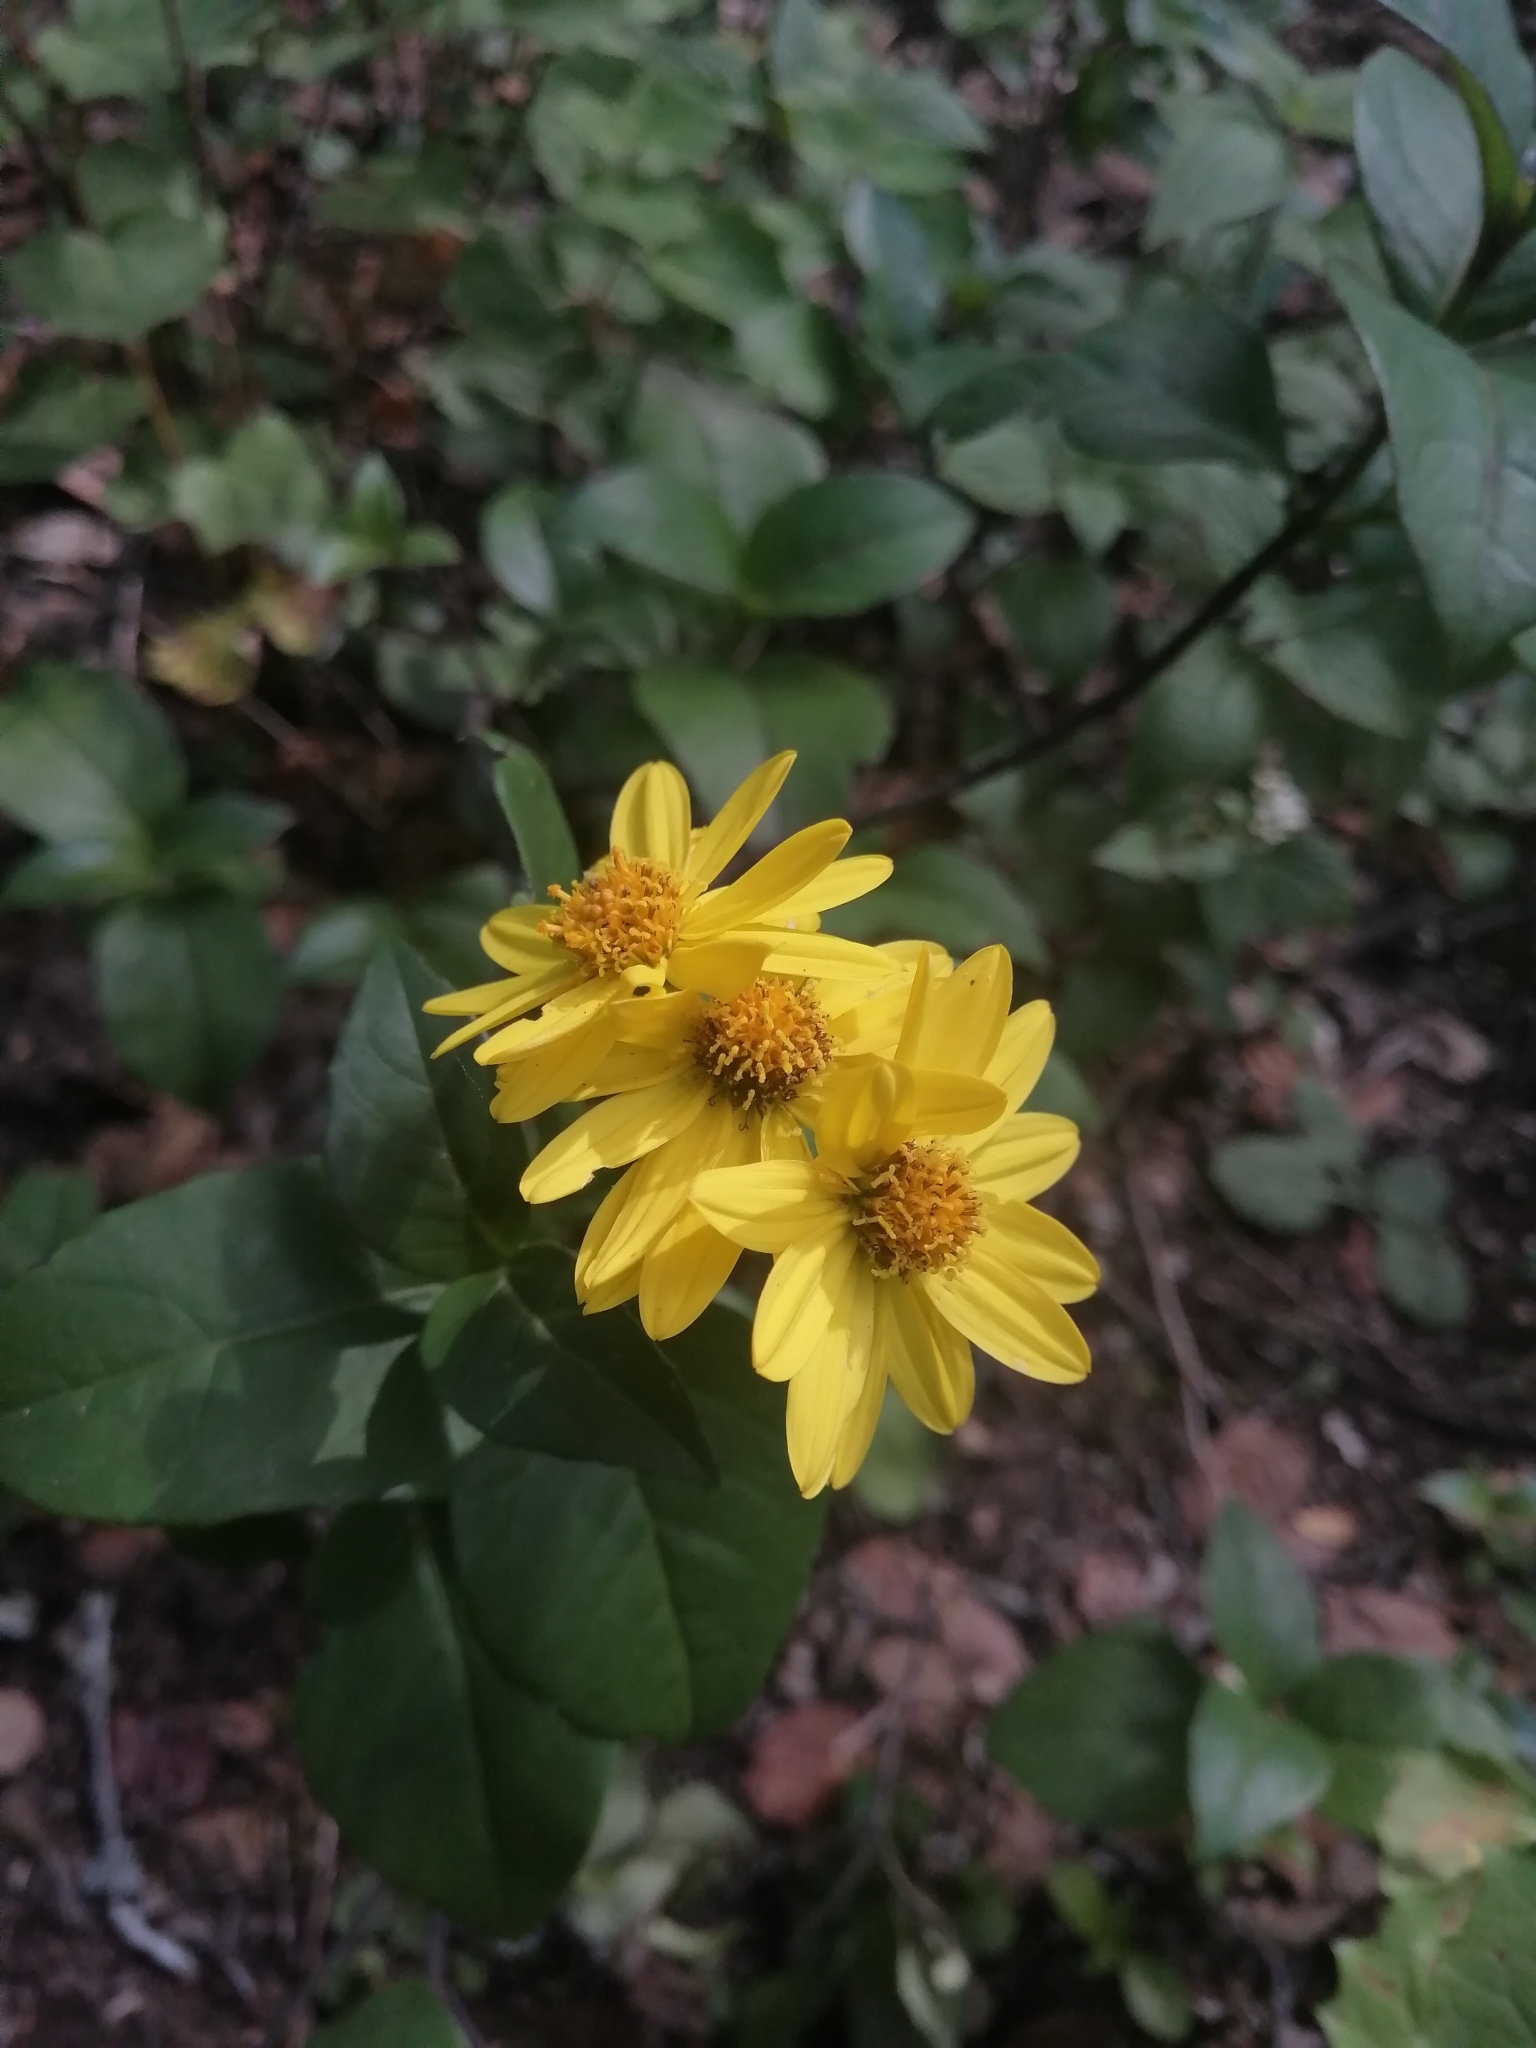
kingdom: Plantae
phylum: Tracheophyta
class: Magnoliopsida
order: Asterales
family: Asteraceae
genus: Tetrachyron
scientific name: Tetrachyron websteri
